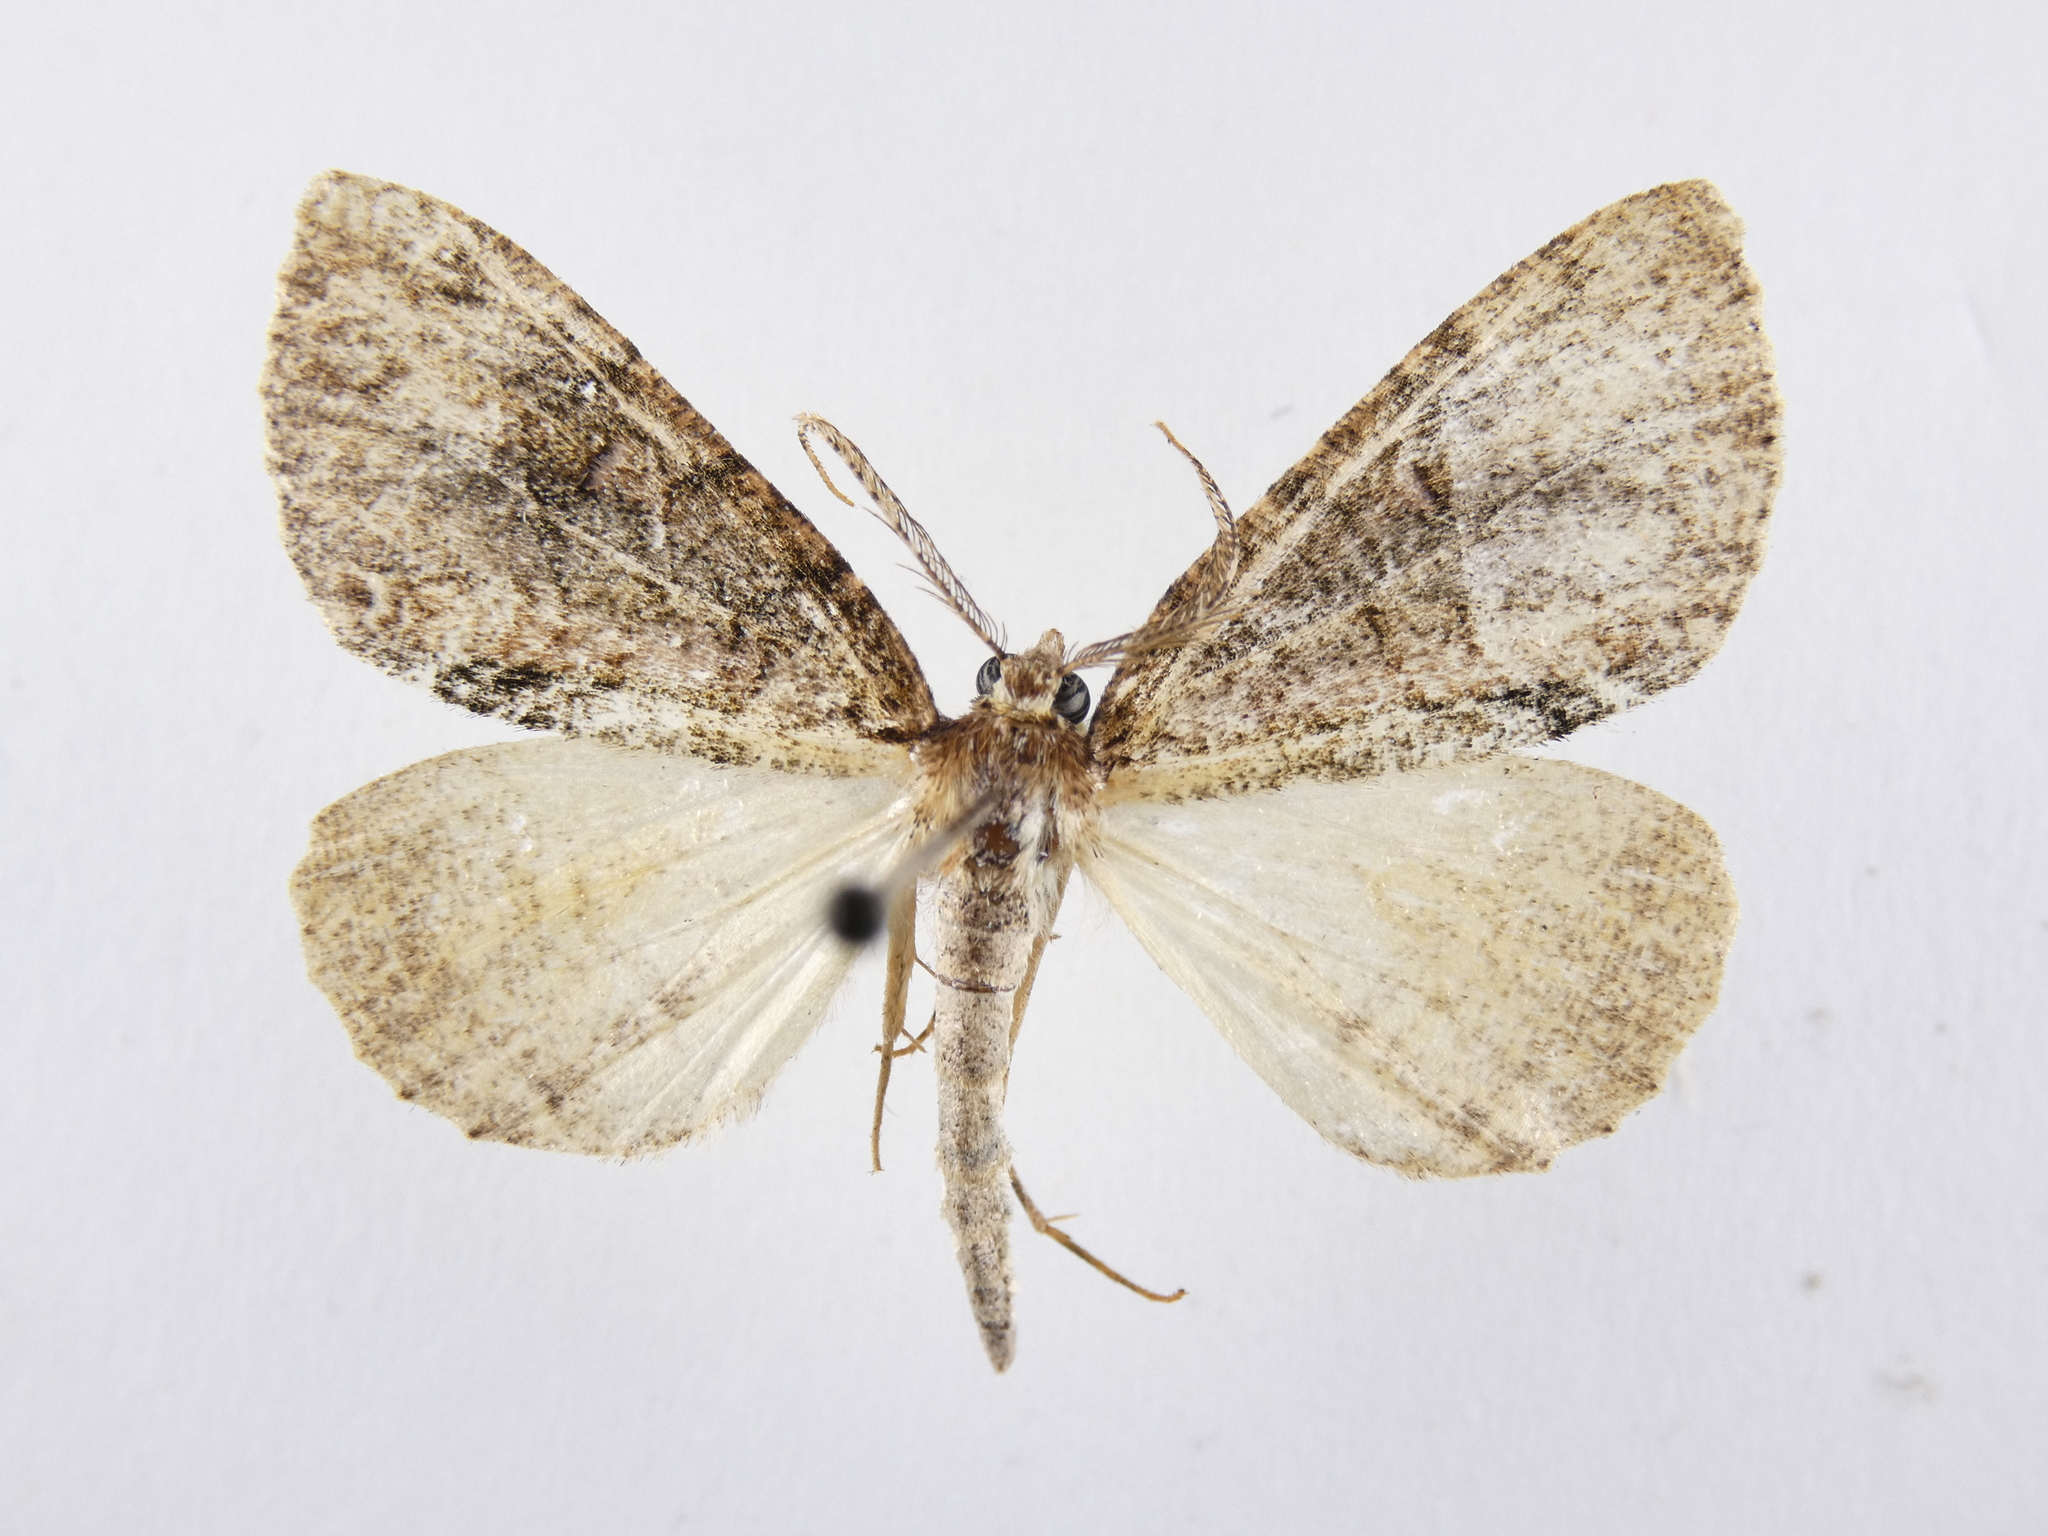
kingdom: Animalia
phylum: Arthropoda
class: Insecta
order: Lepidoptera
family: Geometridae
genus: Pseudocoremia
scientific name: Pseudocoremia suavis
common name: Common forest looper
